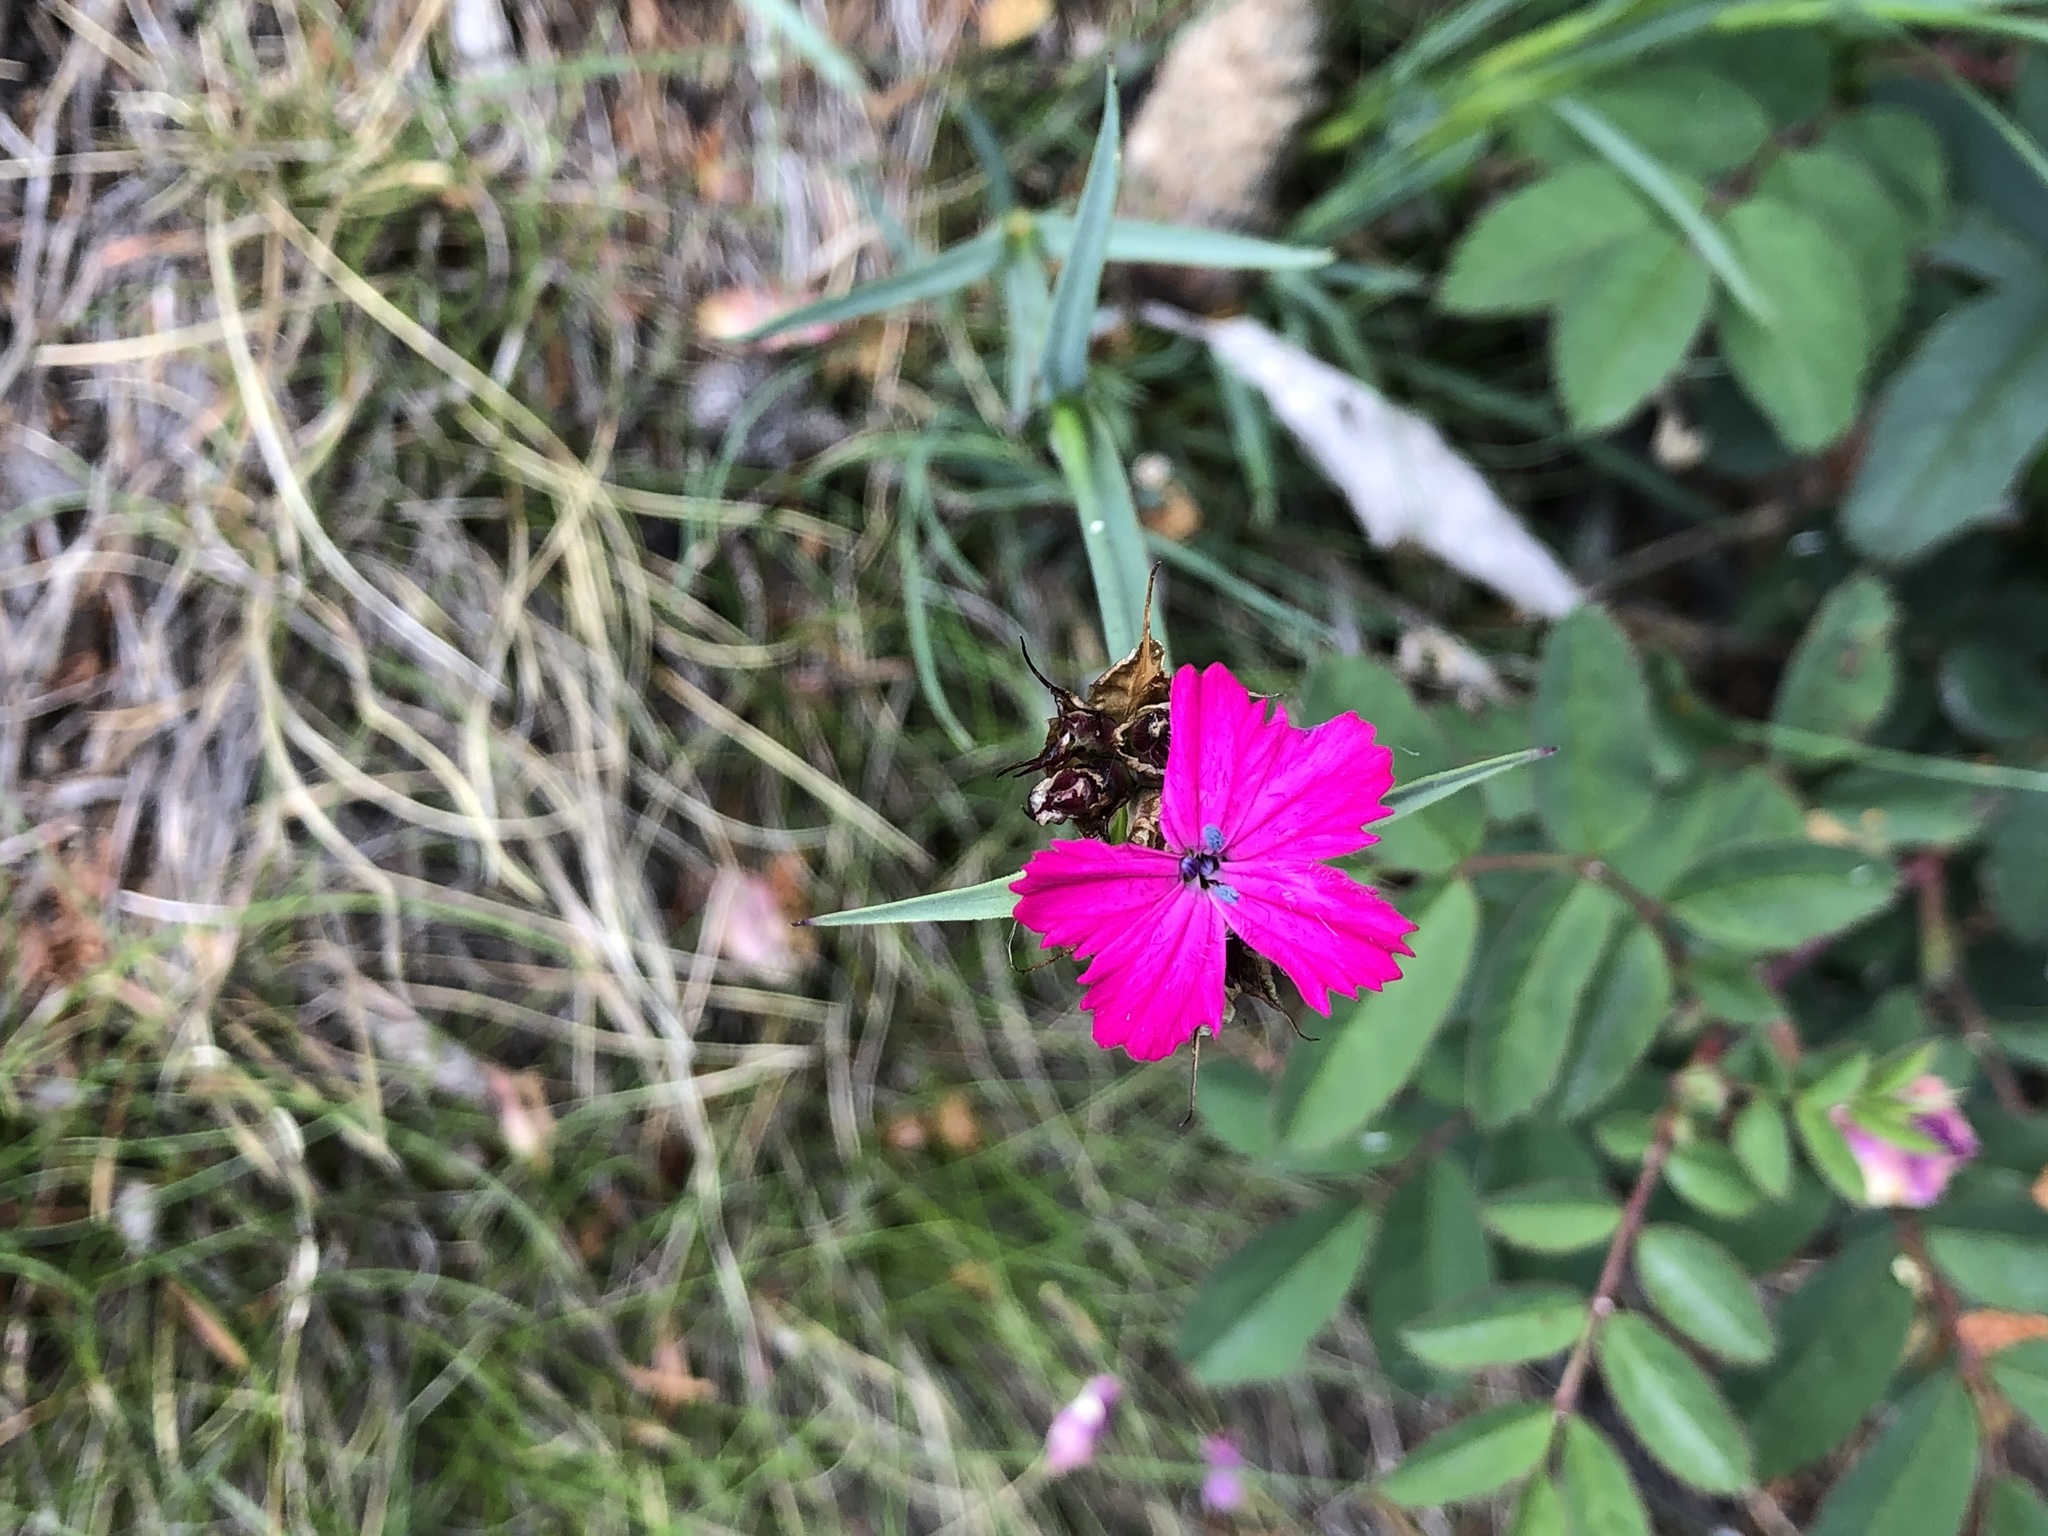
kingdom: Plantae
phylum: Tracheophyta
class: Magnoliopsida
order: Caryophyllales
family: Caryophyllaceae
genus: Dianthus
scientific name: Dianthus carthusianorum
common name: Carthusian pink
